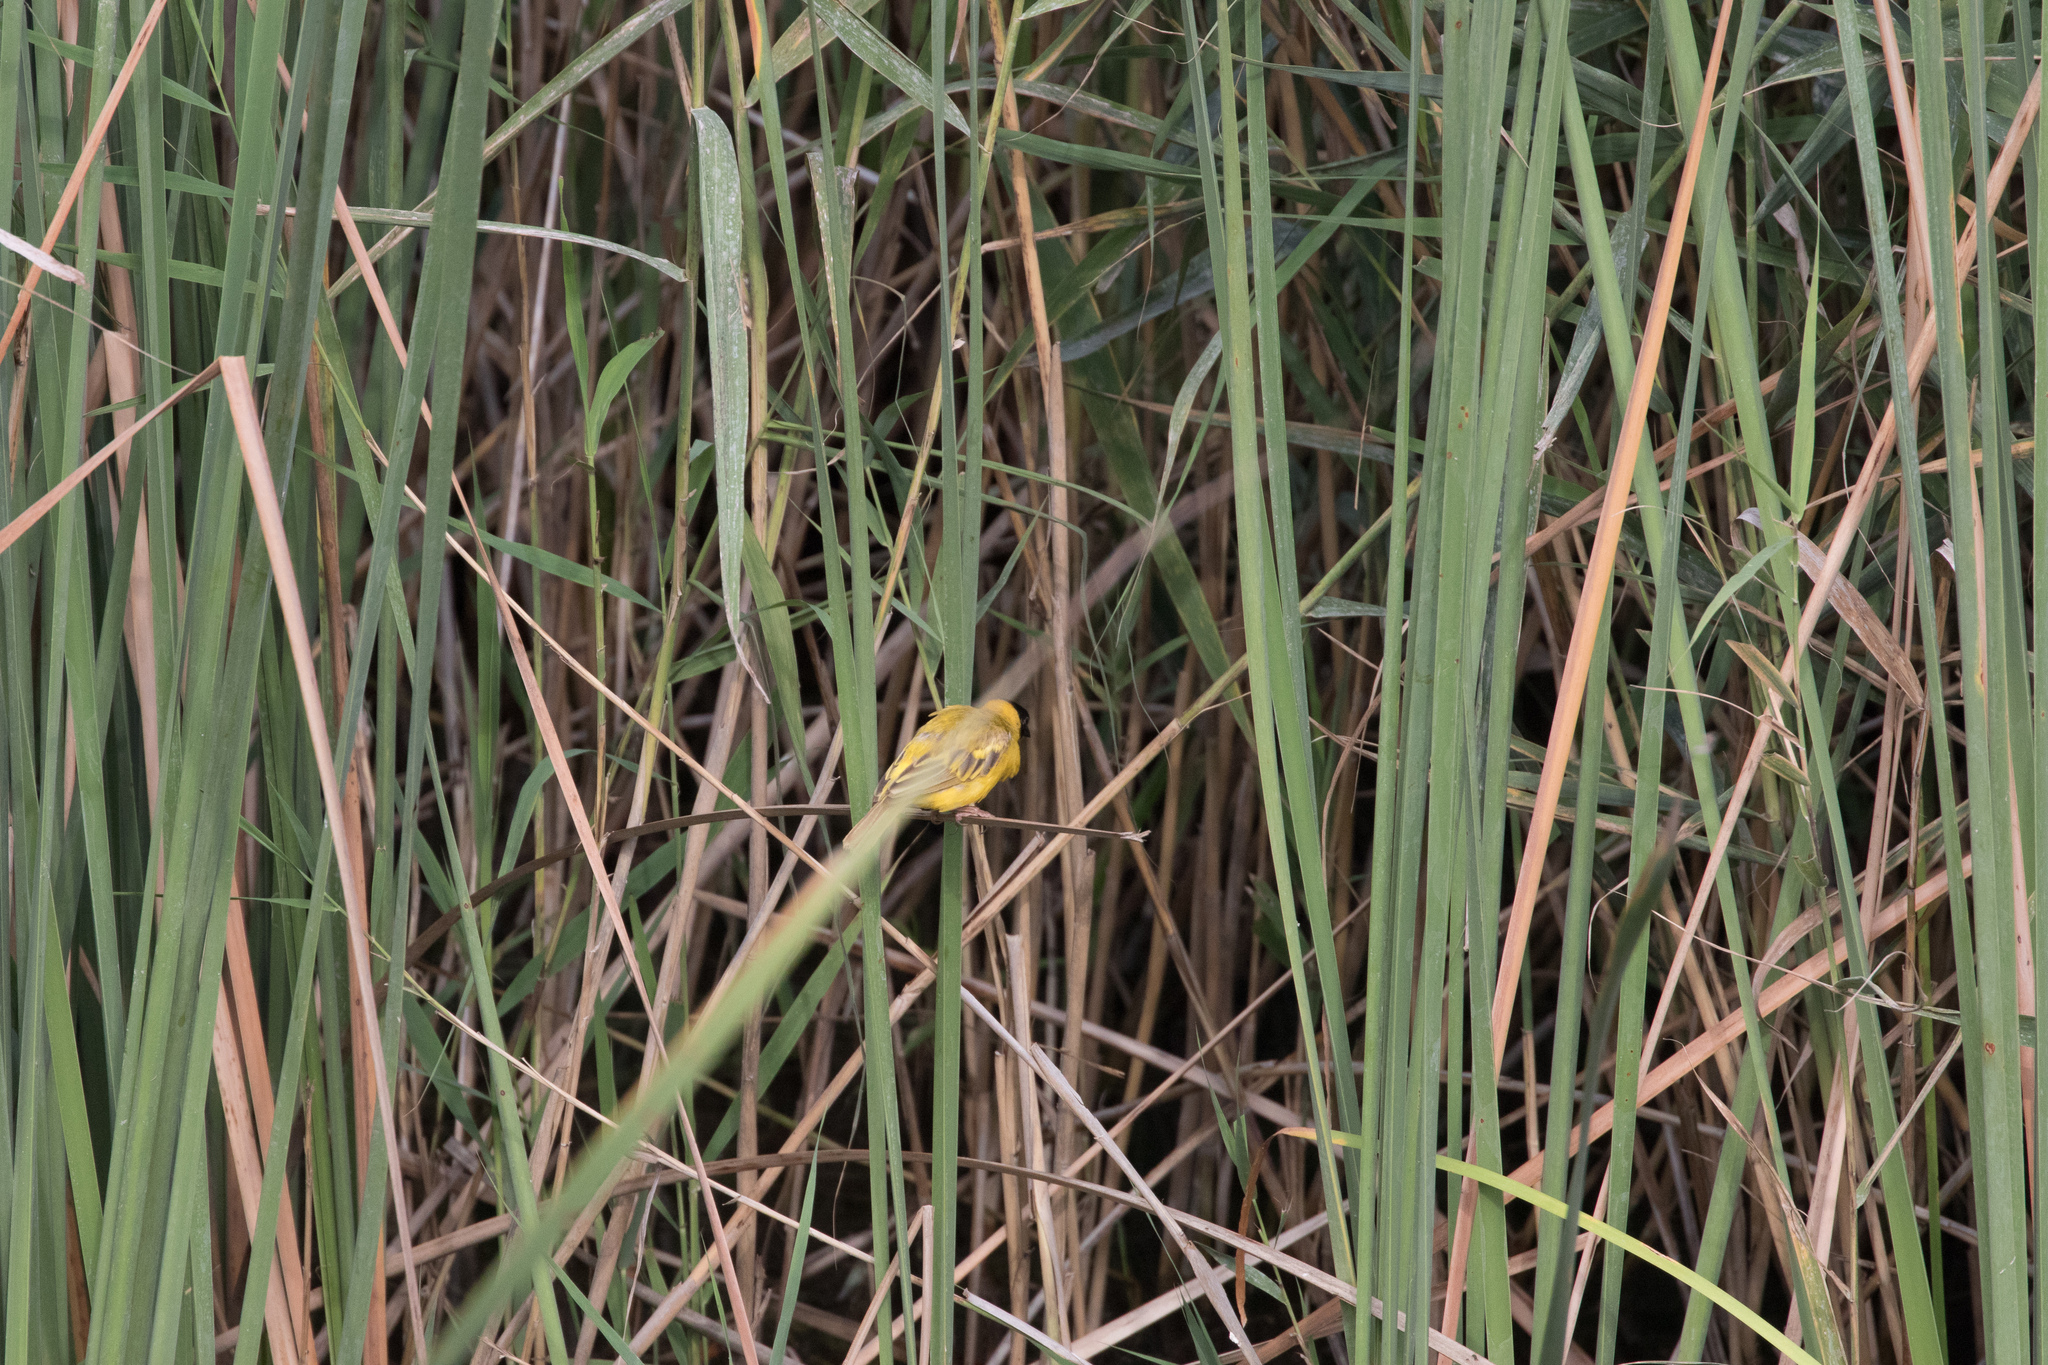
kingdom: Animalia
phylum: Chordata
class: Aves
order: Passeriformes
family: Ploceidae
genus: Ploceus
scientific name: Ploceus melanocephalus
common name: Black-headed weaver
